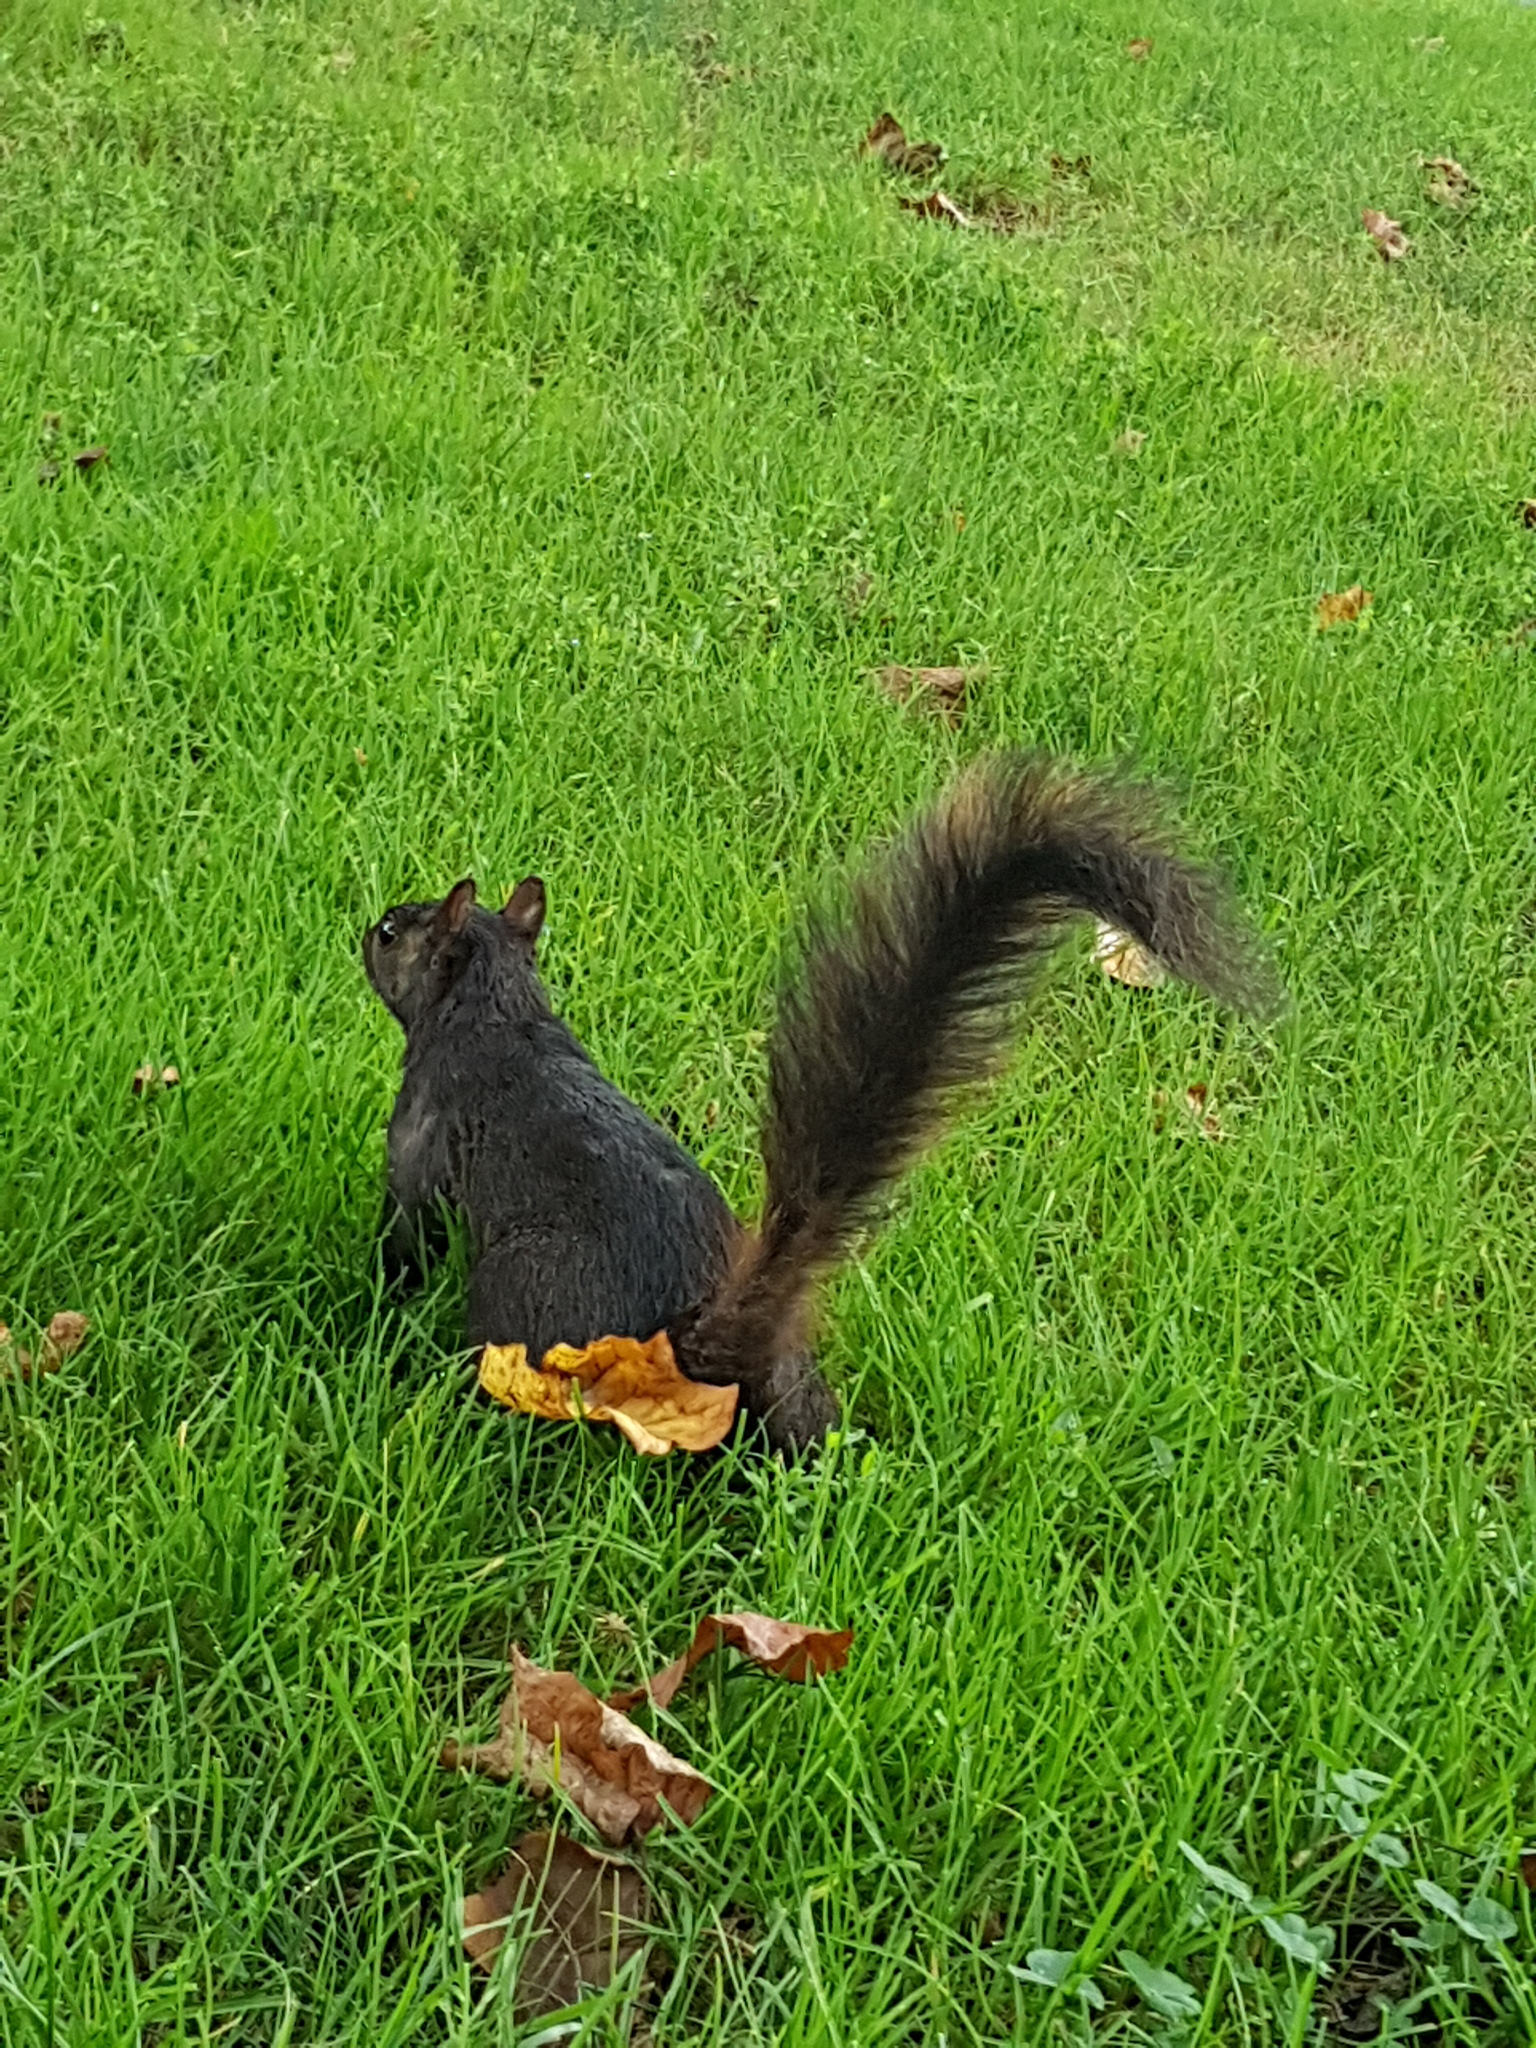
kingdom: Animalia
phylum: Chordata
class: Mammalia
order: Rodentia
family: Sciuridae
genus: Sciurus
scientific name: Sciurus carolinensis
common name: Eastern gray squirrel
